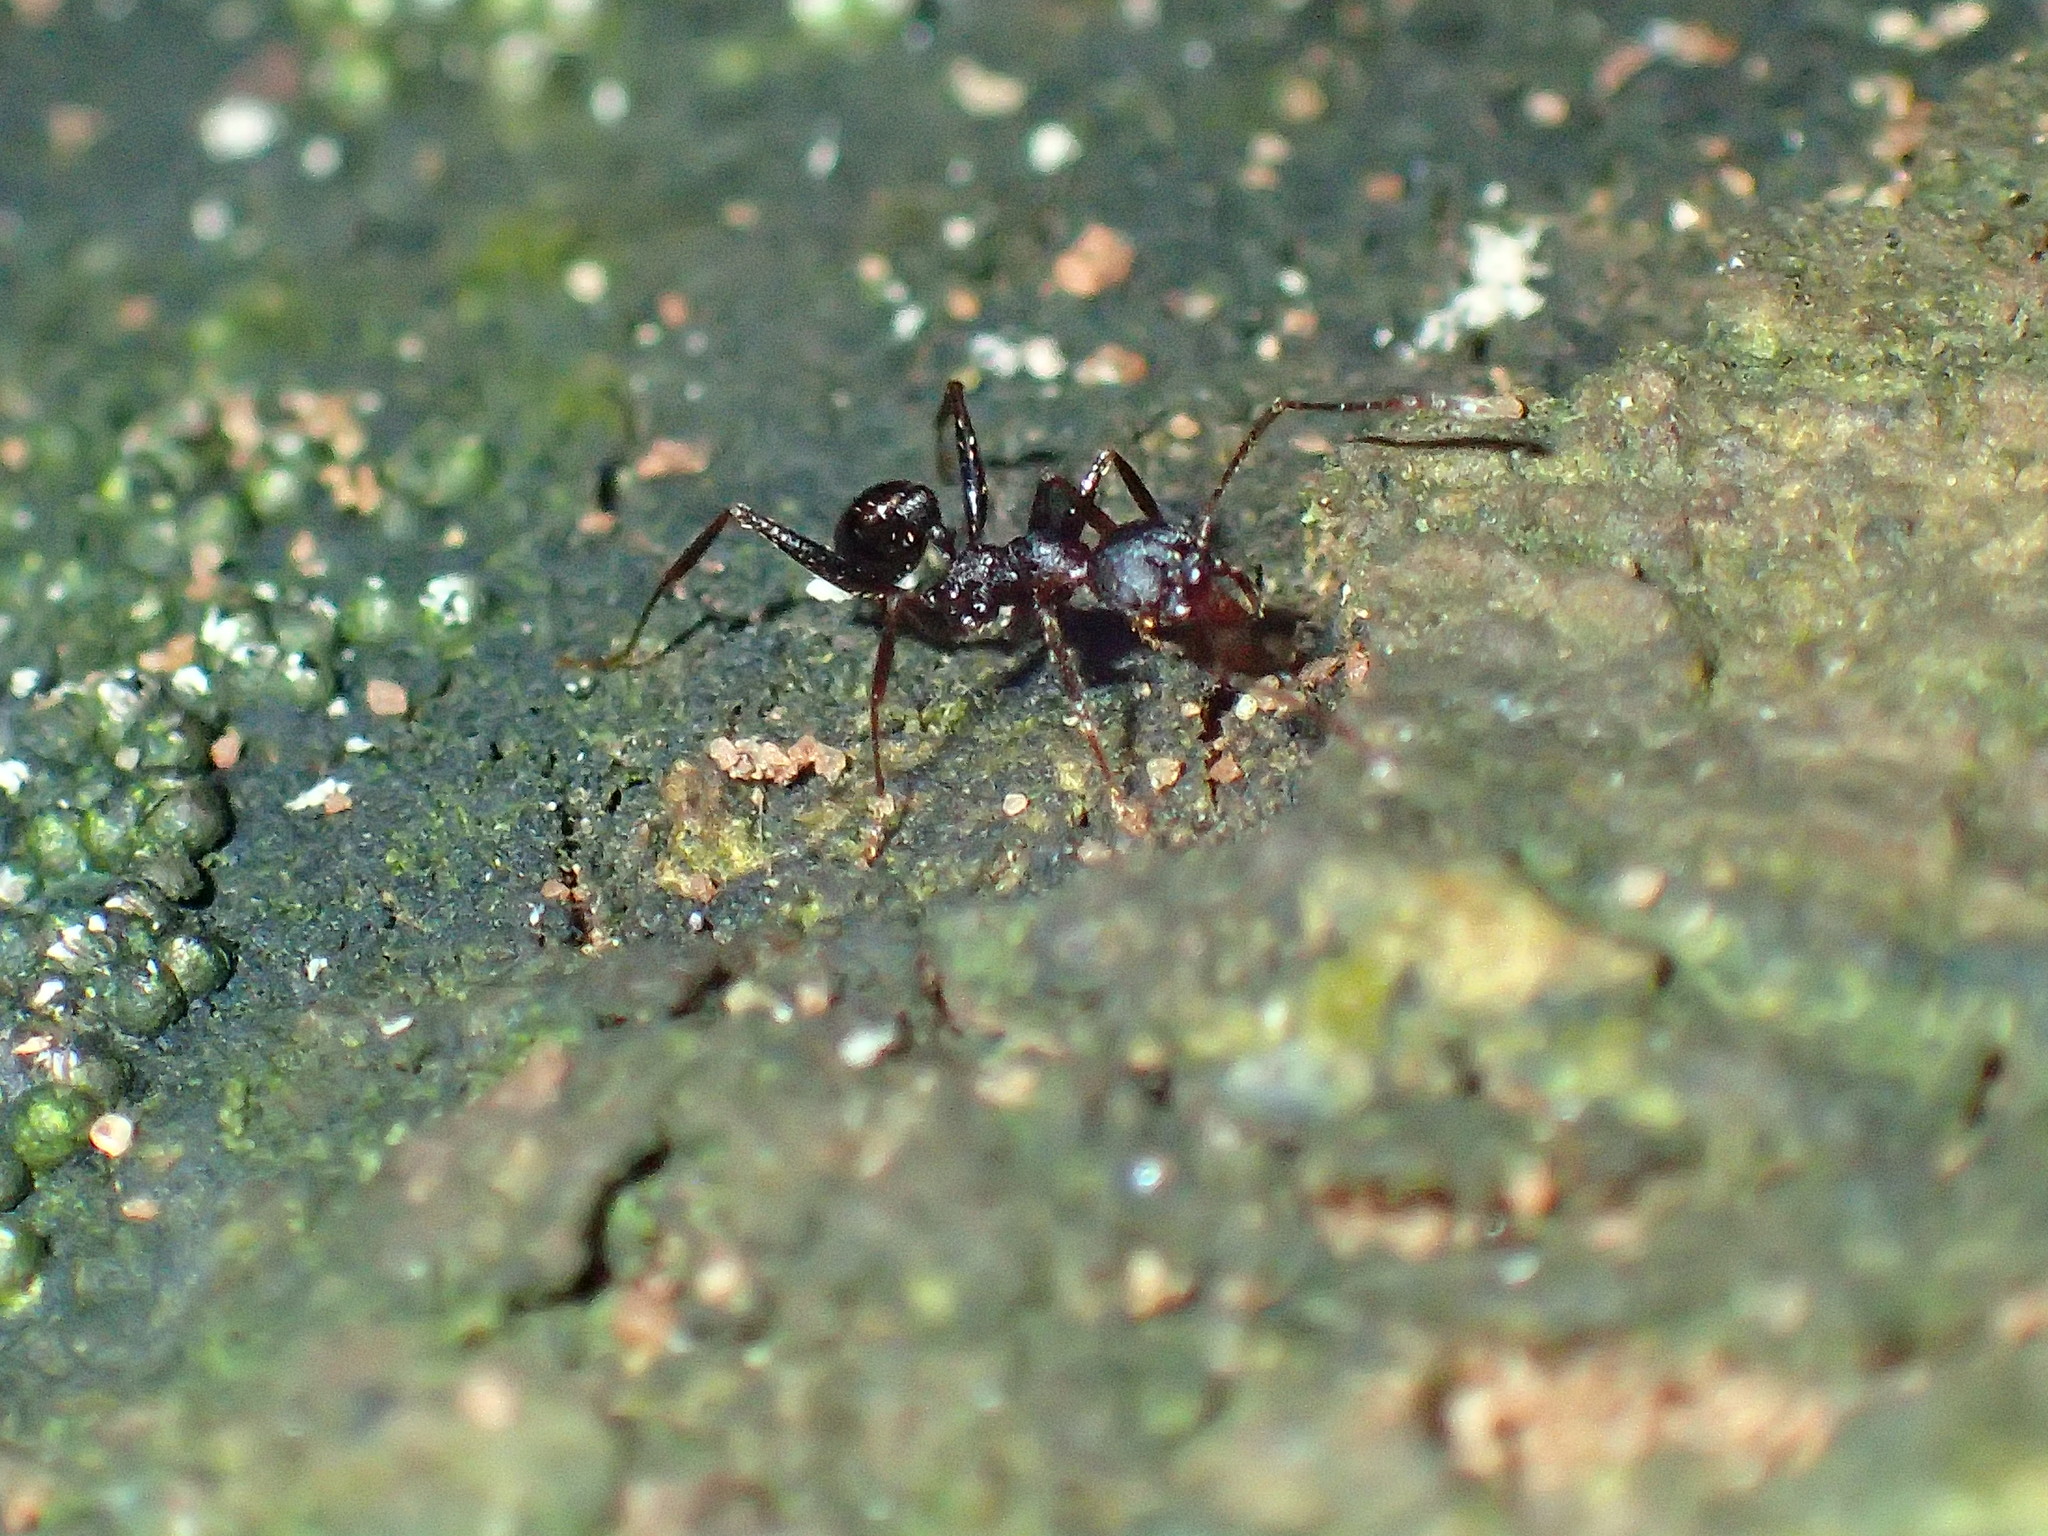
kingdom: Animalia
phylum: Arthropoda
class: Insecta
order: Hymenoptera
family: Formicidae
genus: Pheidole
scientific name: Pheidole foreli
